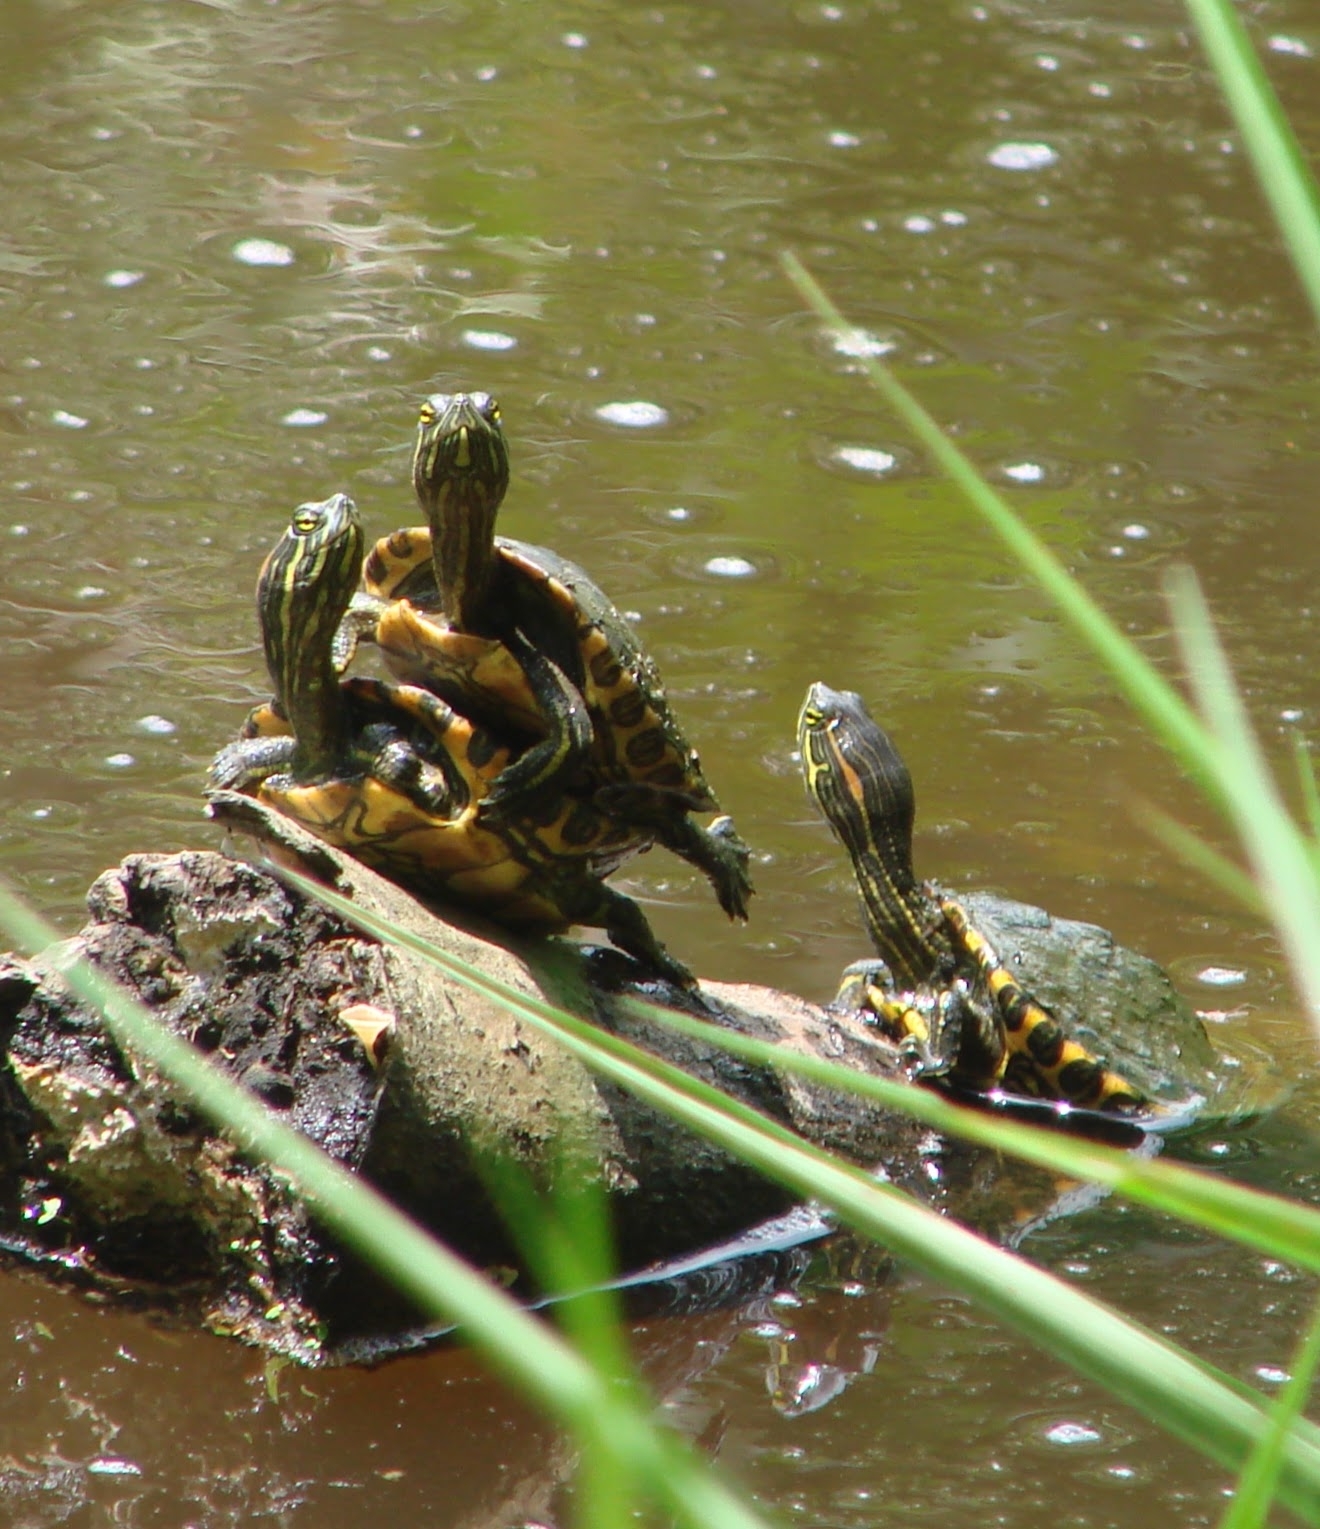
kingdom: Animalia
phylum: Chordata
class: Testudines
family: Emydidae
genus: Trachemys
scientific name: Trachemys venusta
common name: Mesoamerican slider
